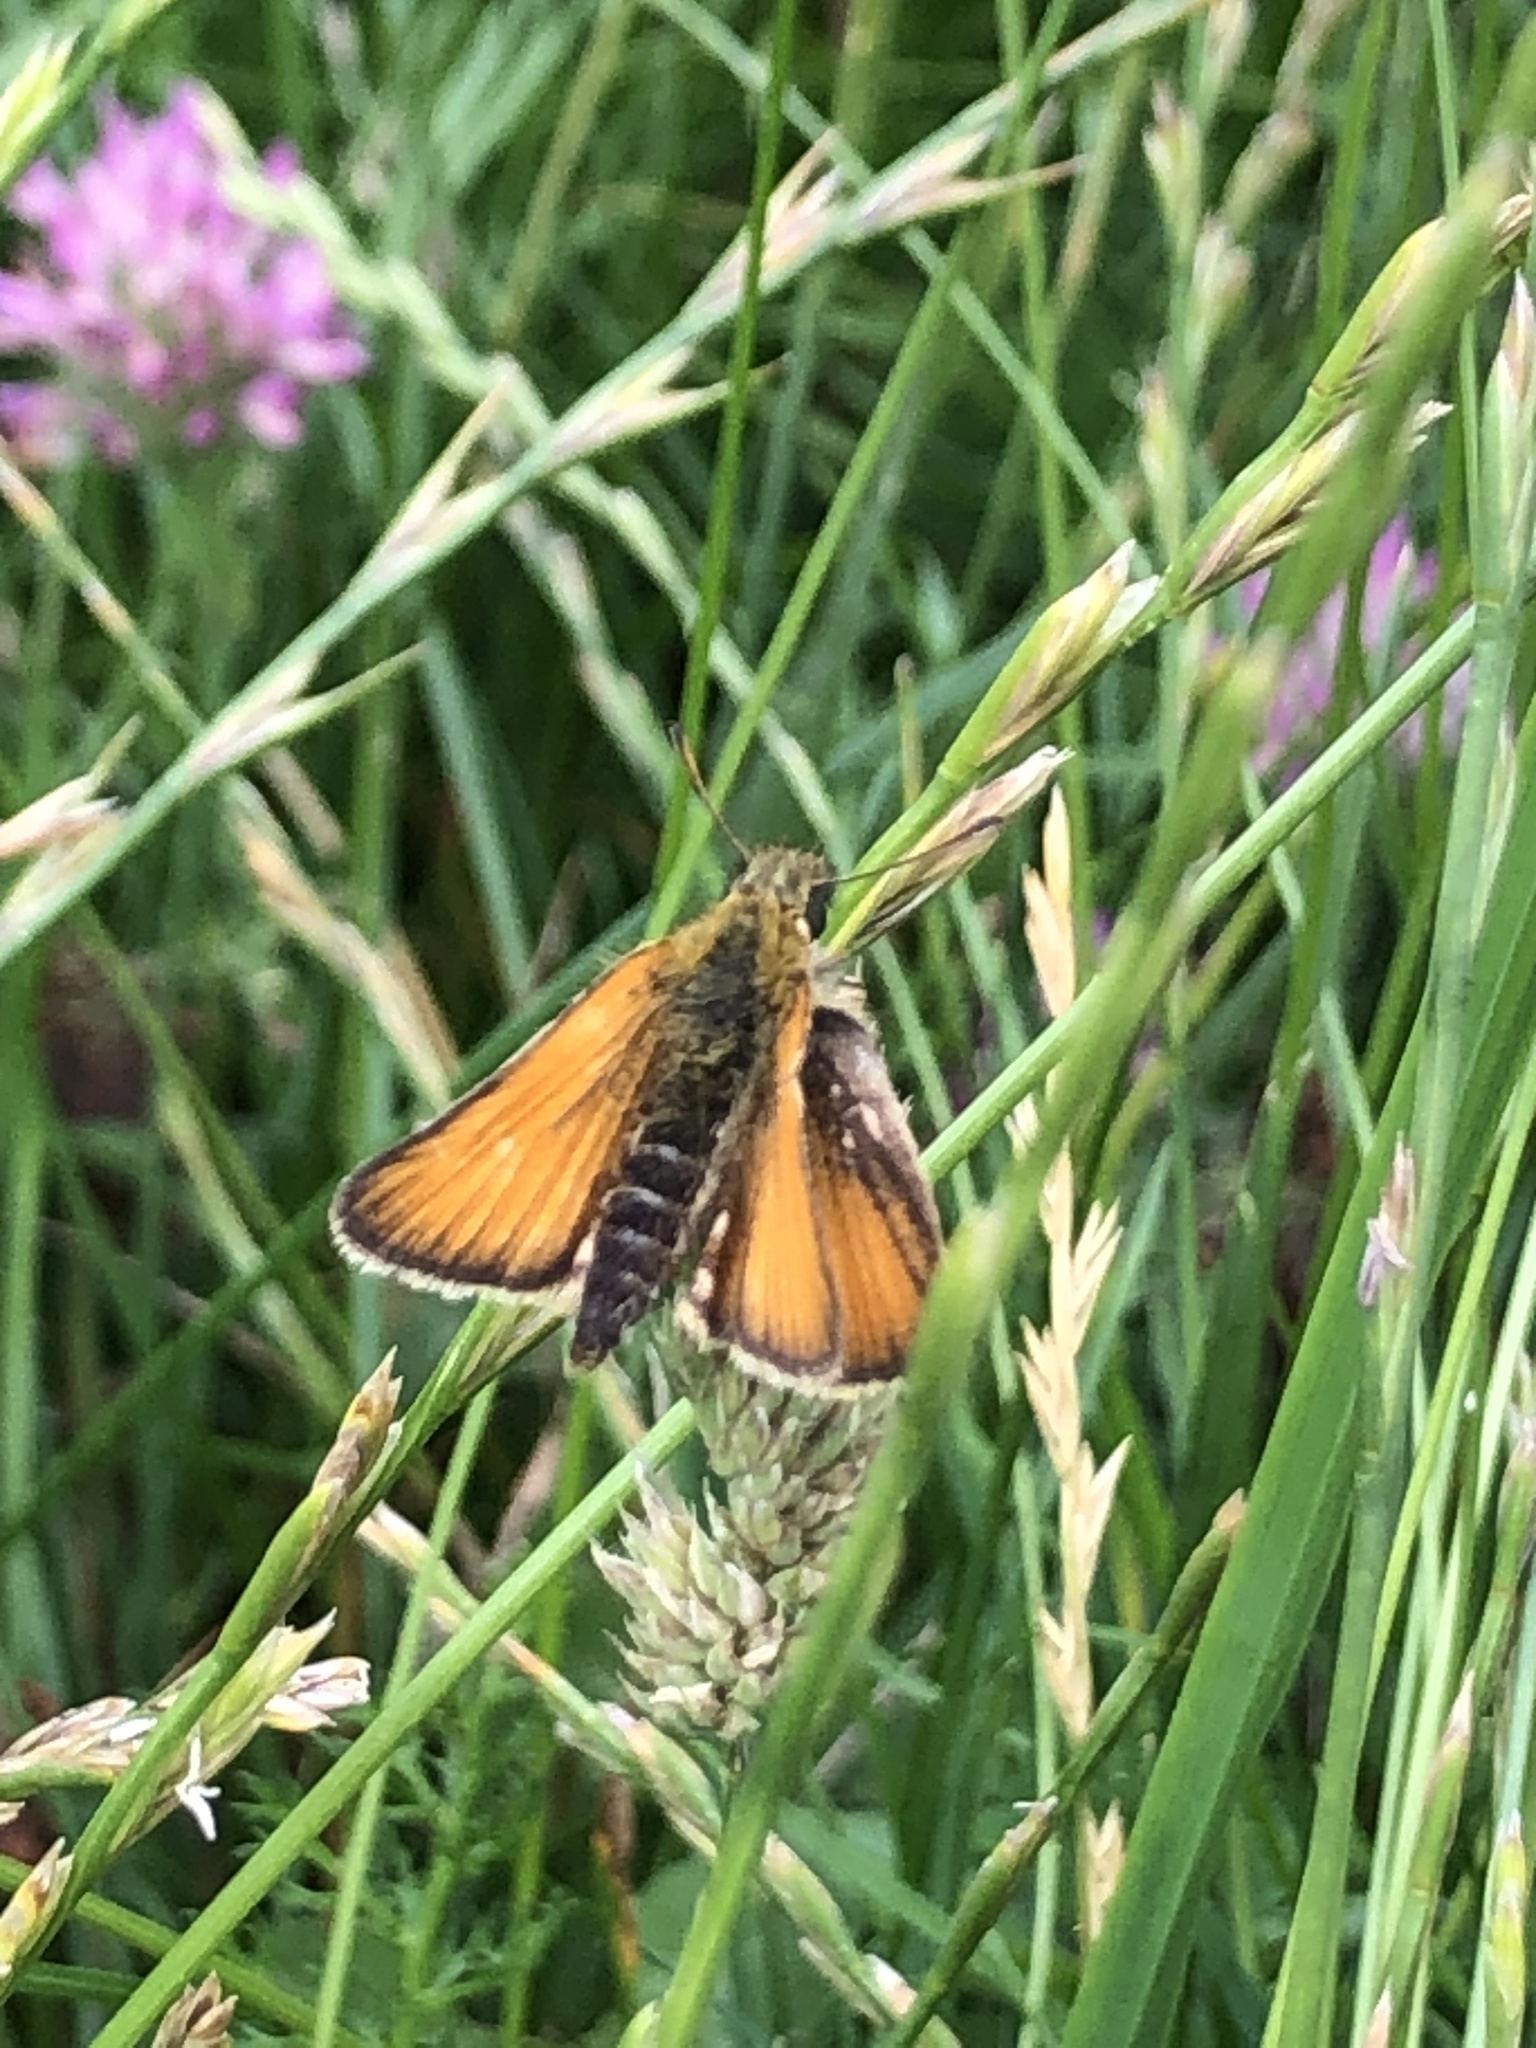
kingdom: Animalia
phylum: Arthropoda
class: Insecta
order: Lepidoptera
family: Hesperiidae
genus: Thymelicus
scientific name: Thymelicus lineola
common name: Essex skipper
